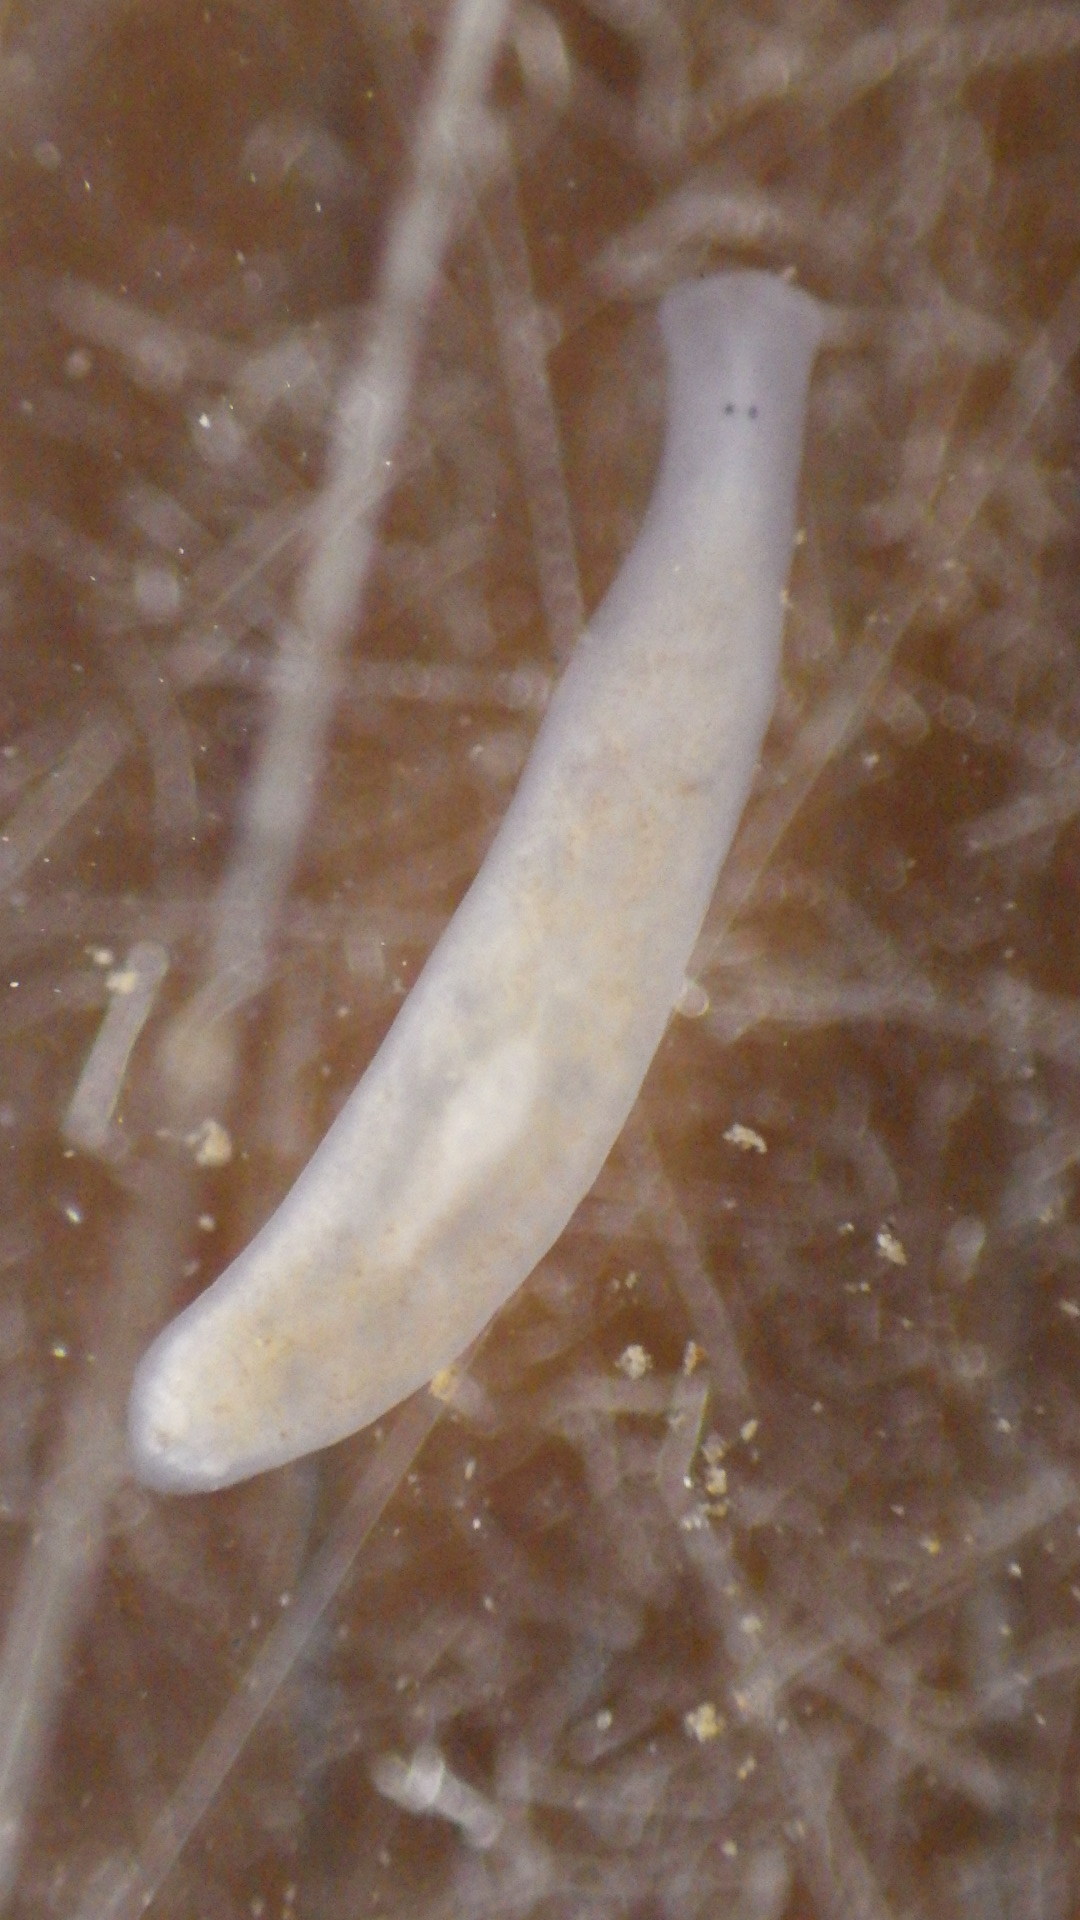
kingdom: Animalia
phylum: Platyhelminthes
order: Tricladida
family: Planariidae
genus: Phagocata
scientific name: Phagocata morgani
